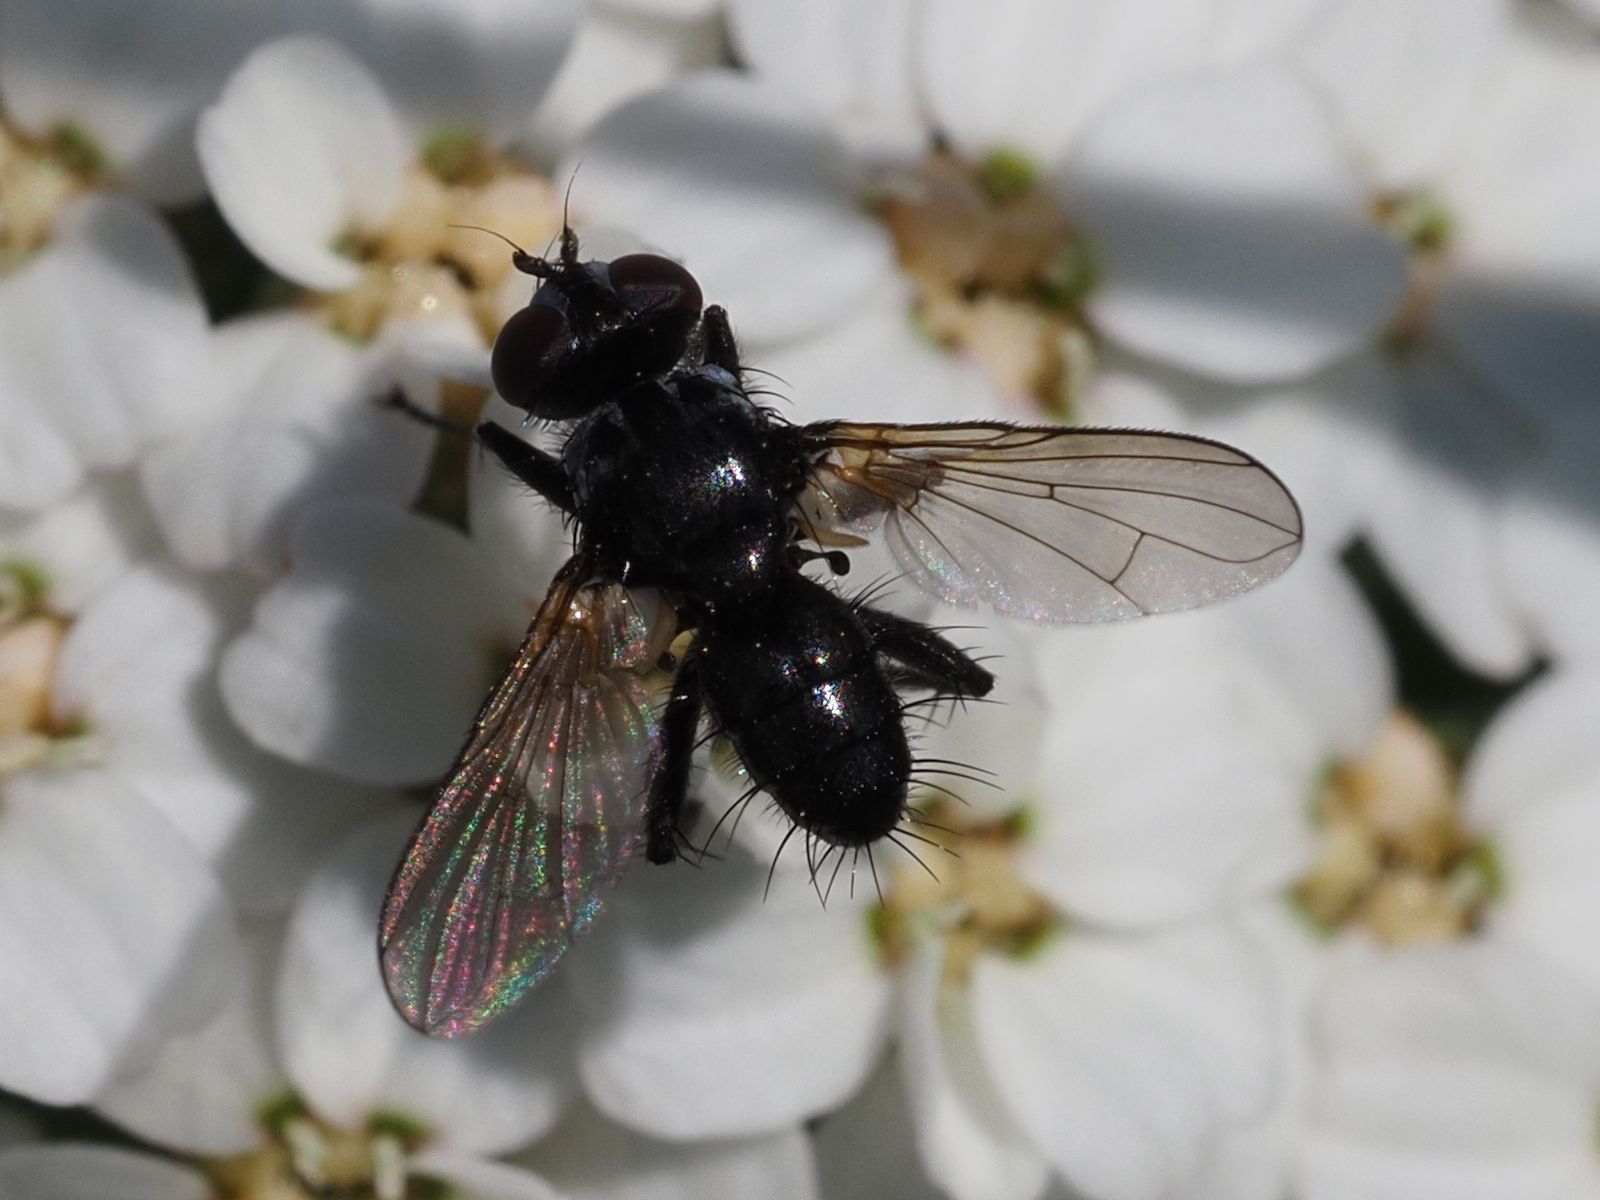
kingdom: Animalia
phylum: Arthropoda
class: Insecta
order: Diptera
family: Tachinidae
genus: Phania
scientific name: Phania funesta
